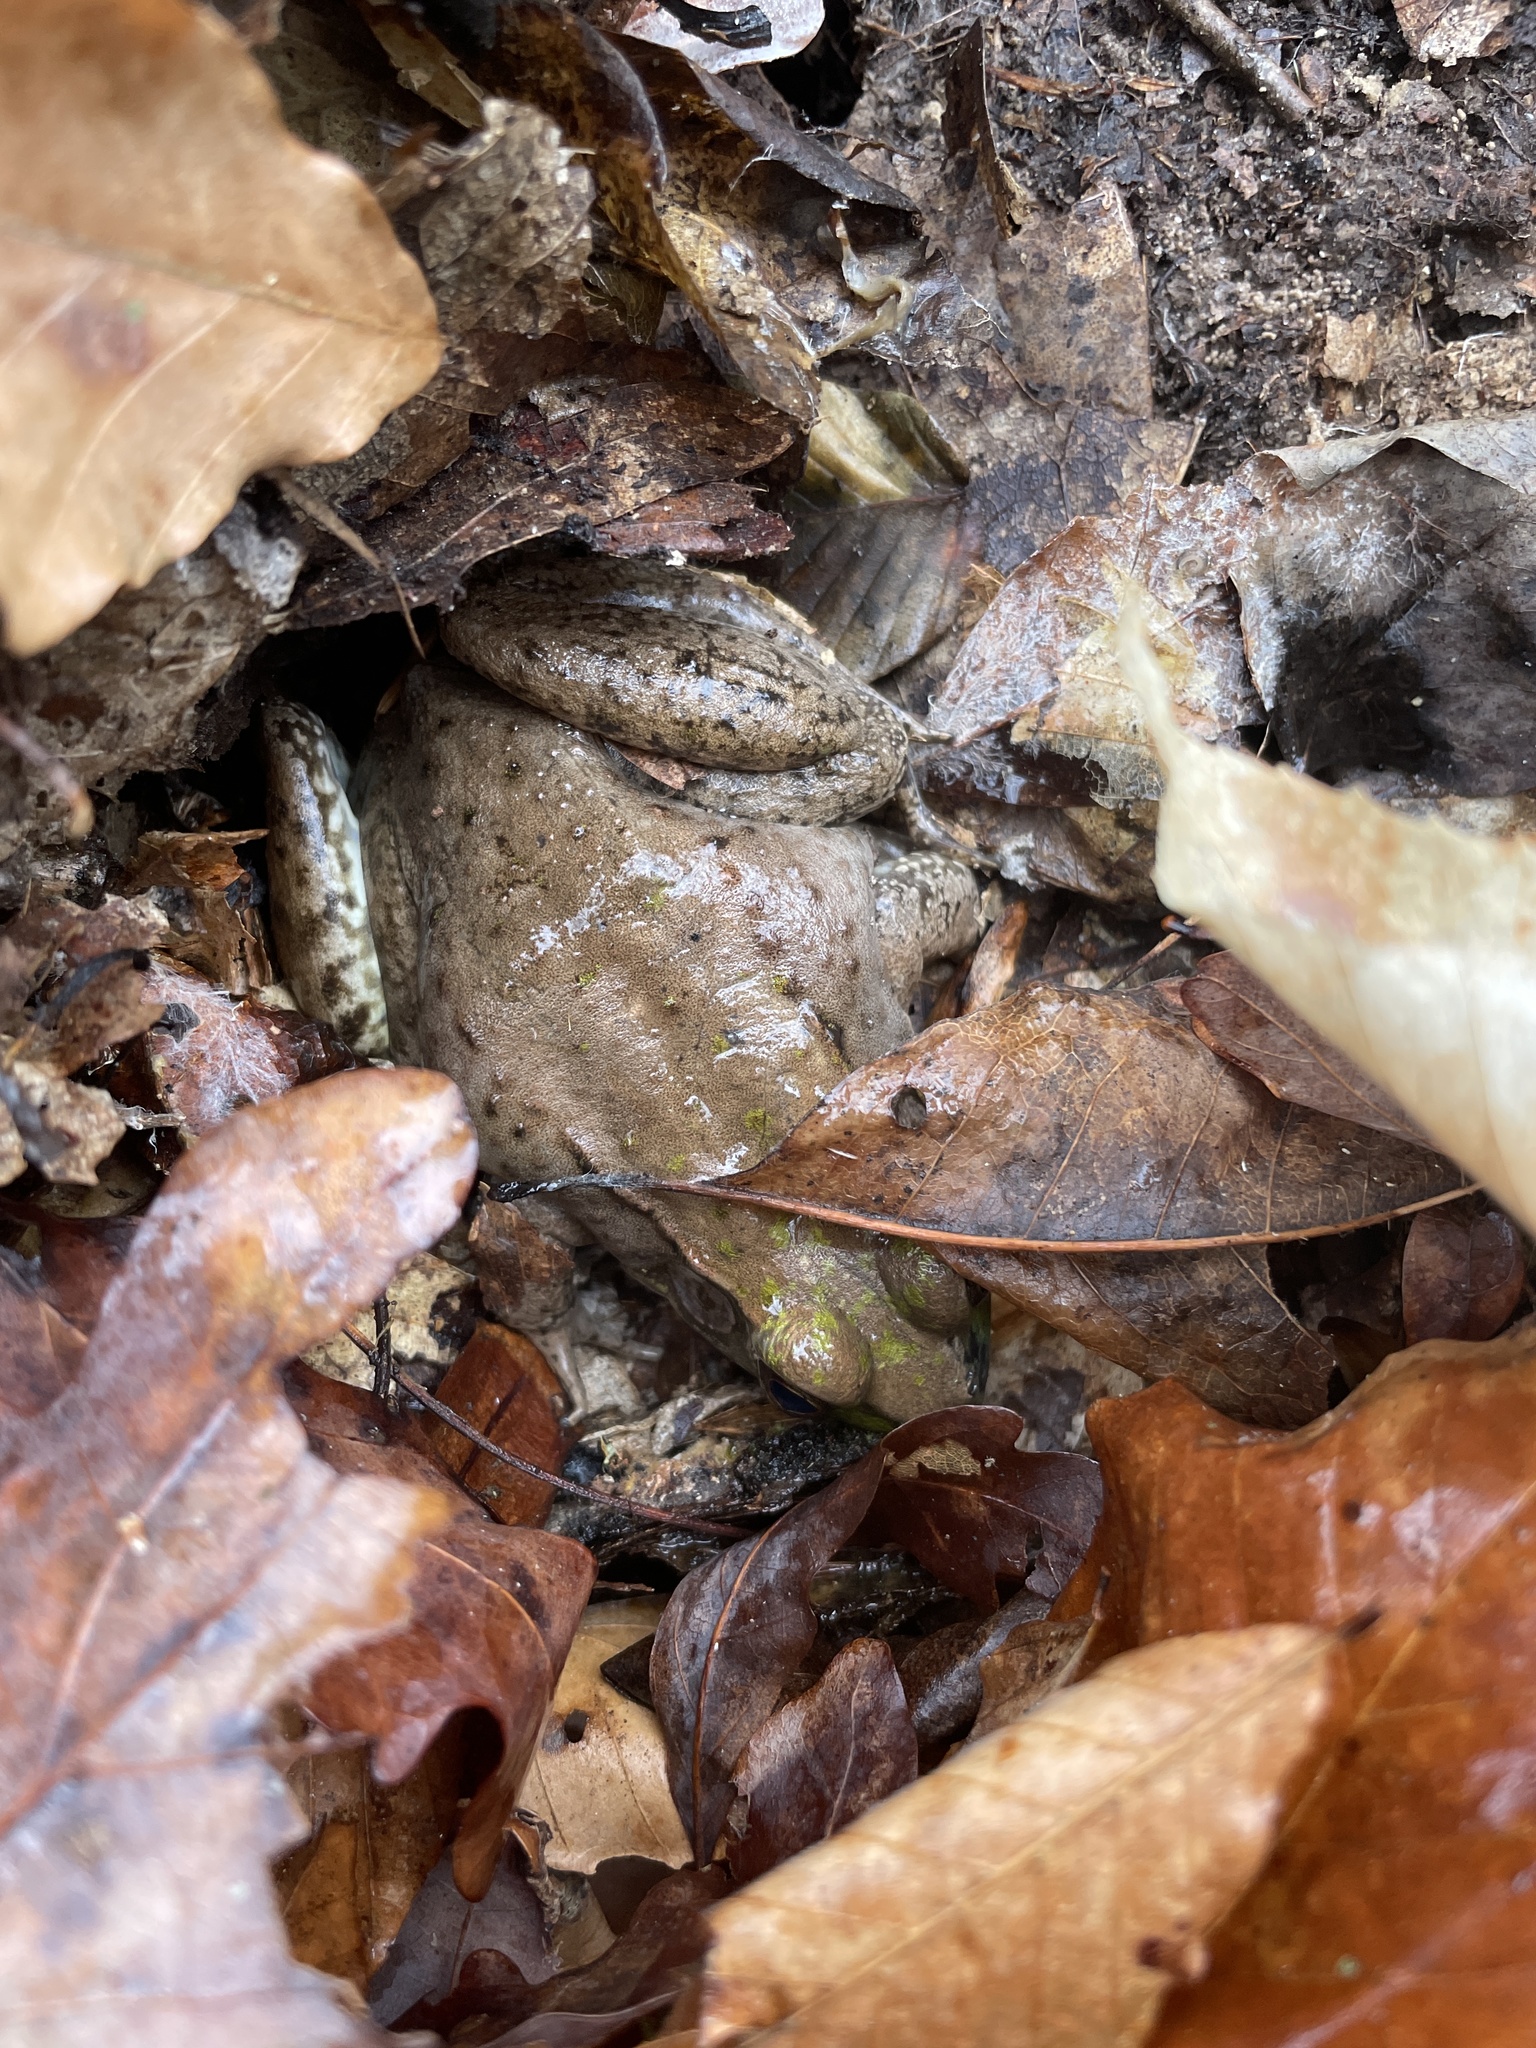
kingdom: Animalia
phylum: Chordata
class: Amphibia
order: Anura
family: Ranidae
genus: Lithobates
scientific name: Lithobates clamitans
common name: Green frog
